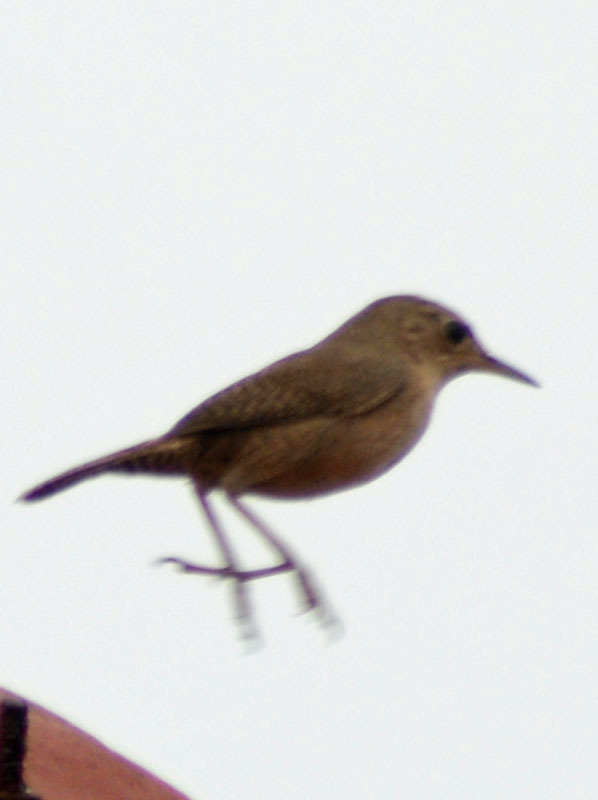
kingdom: Animalia
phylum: Chordata
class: Aves
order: Passeriformes
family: Troglodytidae
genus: Troglodytes
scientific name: Troglodytes aedon
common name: House wren
